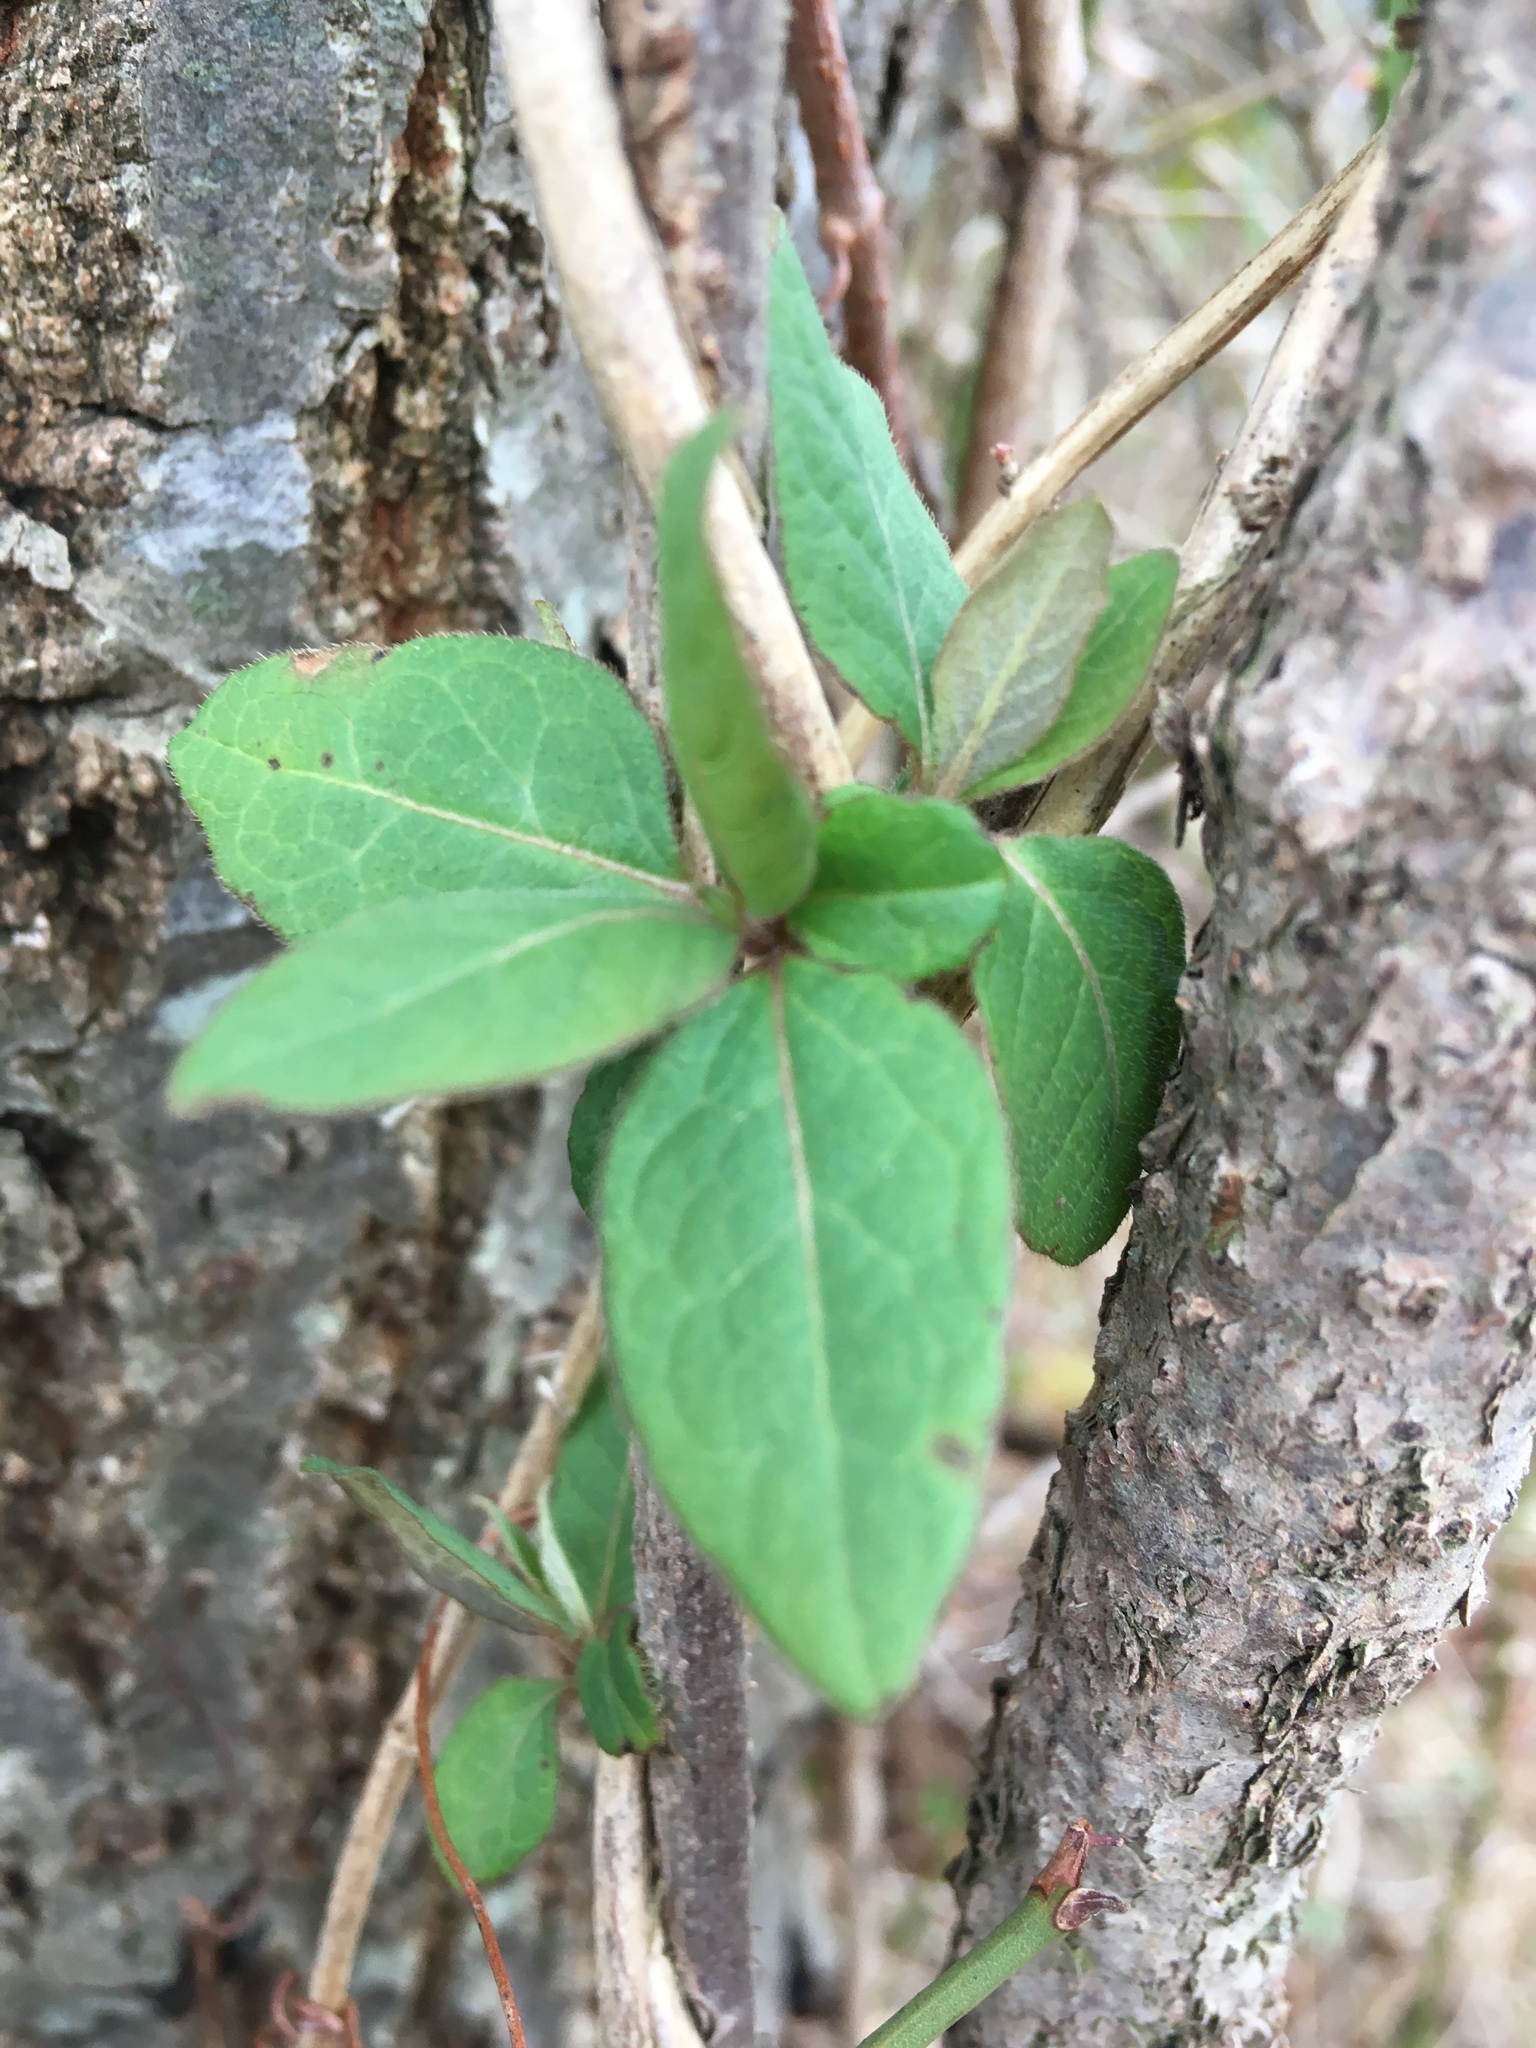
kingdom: Plantae
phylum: Tracheophyta
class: Magnoliopsida
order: Dipsacales
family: Caprifoliaceae
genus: Lonicera
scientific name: Lonicera japonica
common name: Japanese honeysuckle
